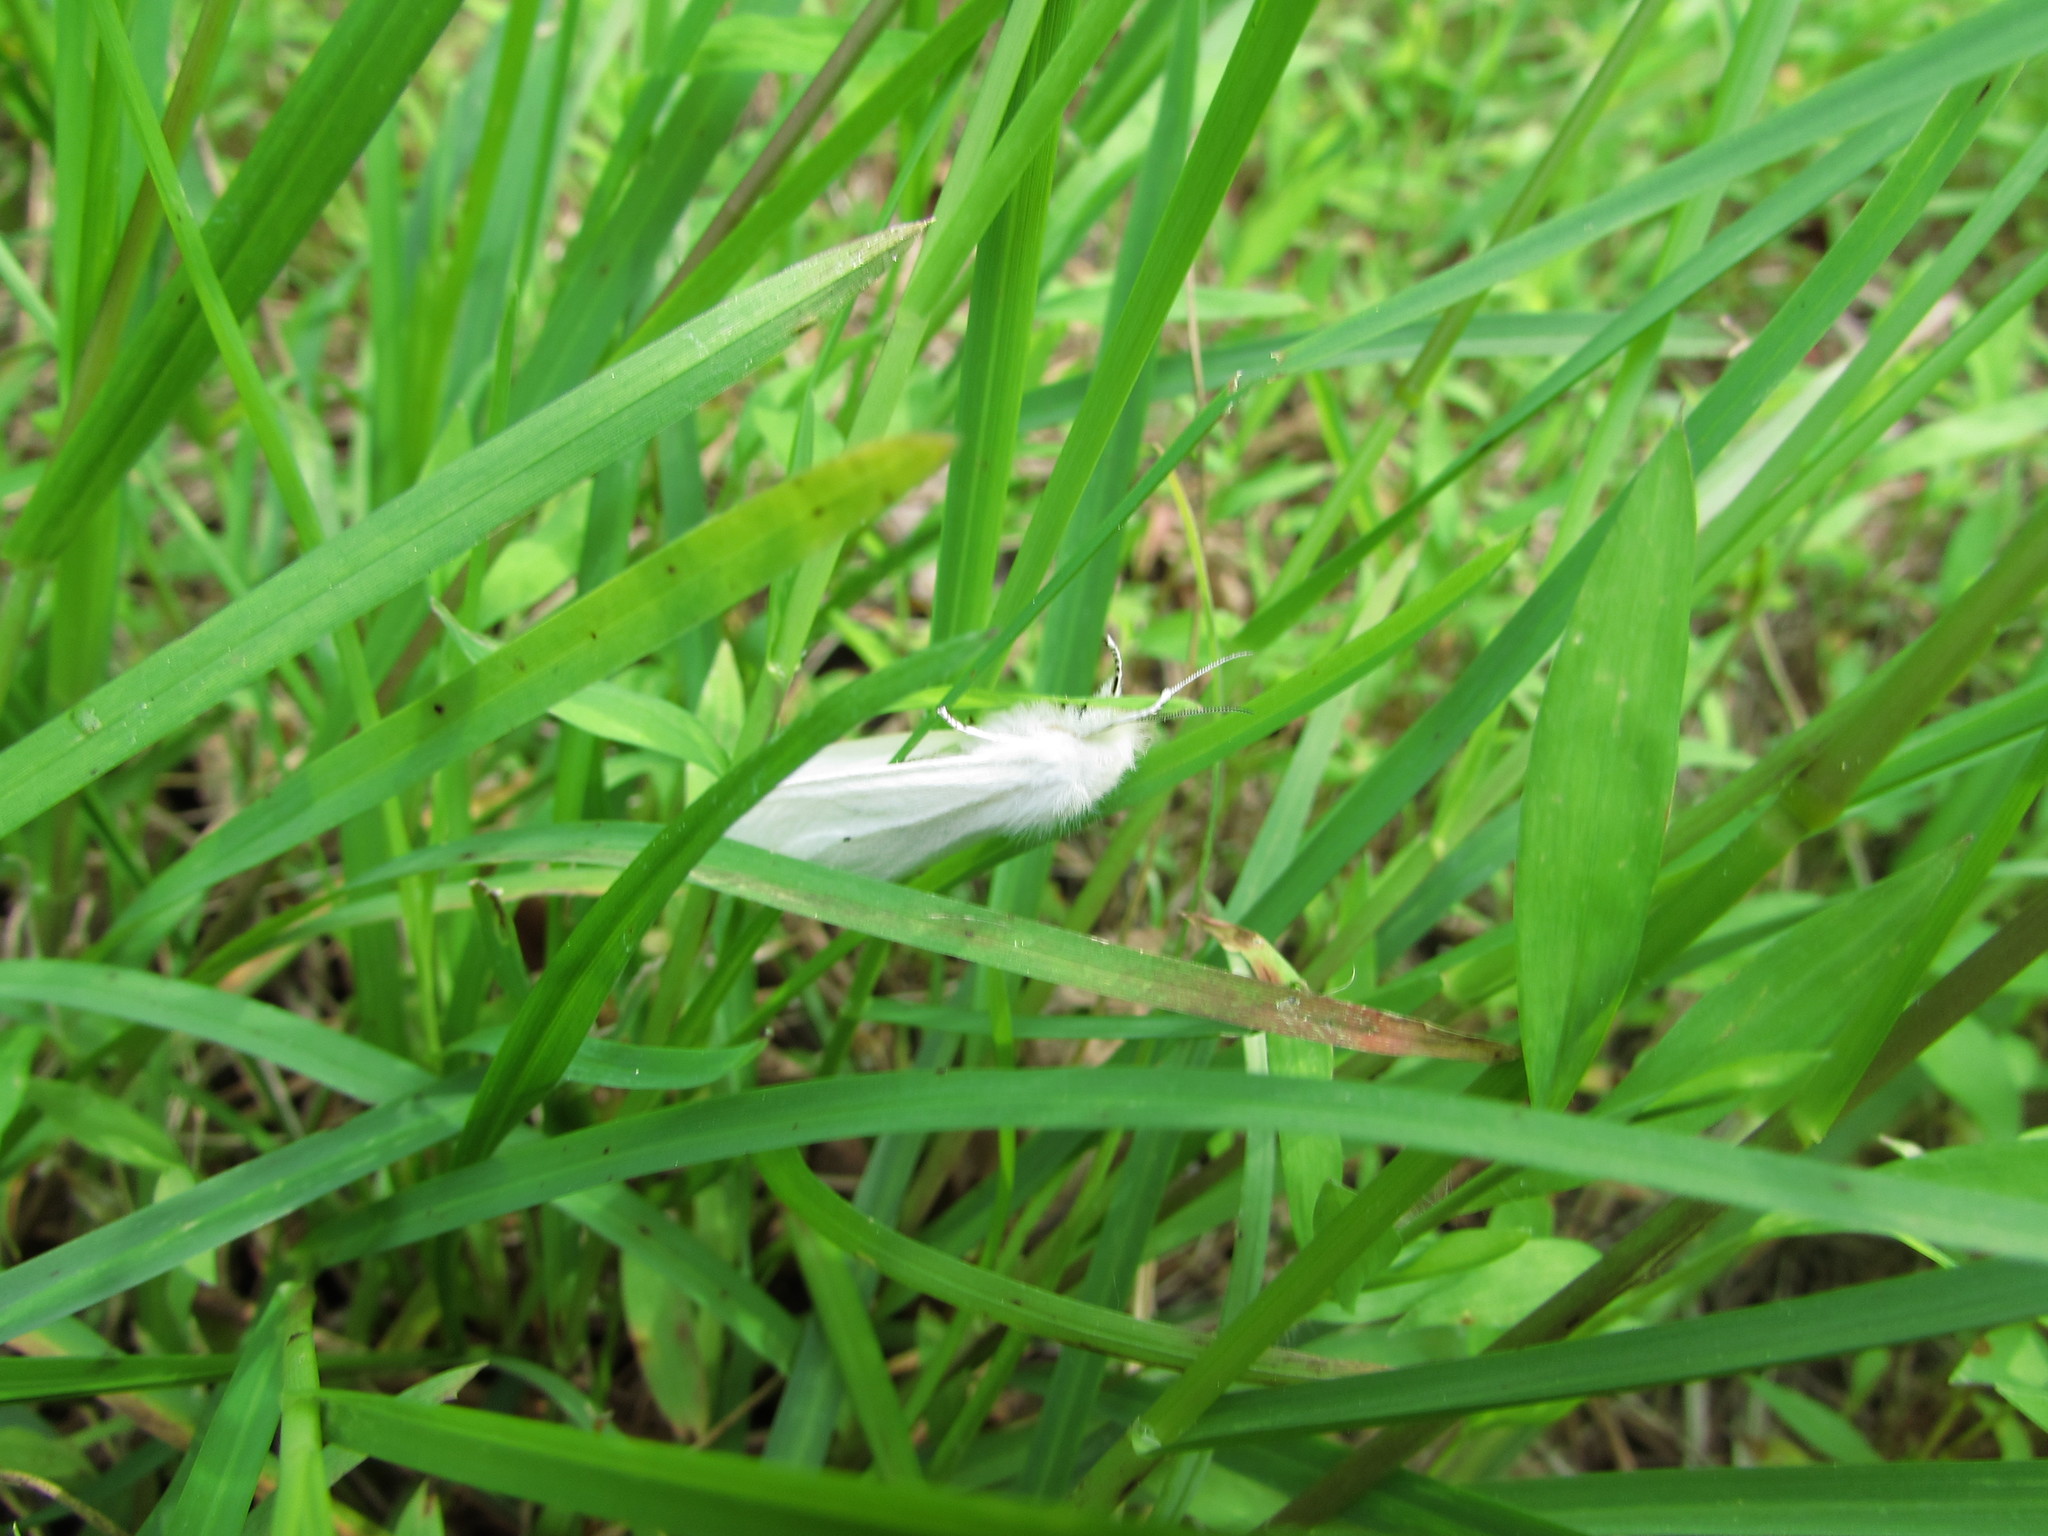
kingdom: Animalia
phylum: Arthropoda
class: Insecta
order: Lepidoptera
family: Hesperiidae
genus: Ancyloxypha
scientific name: Ancyloxypha numitor
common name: Least skipper
